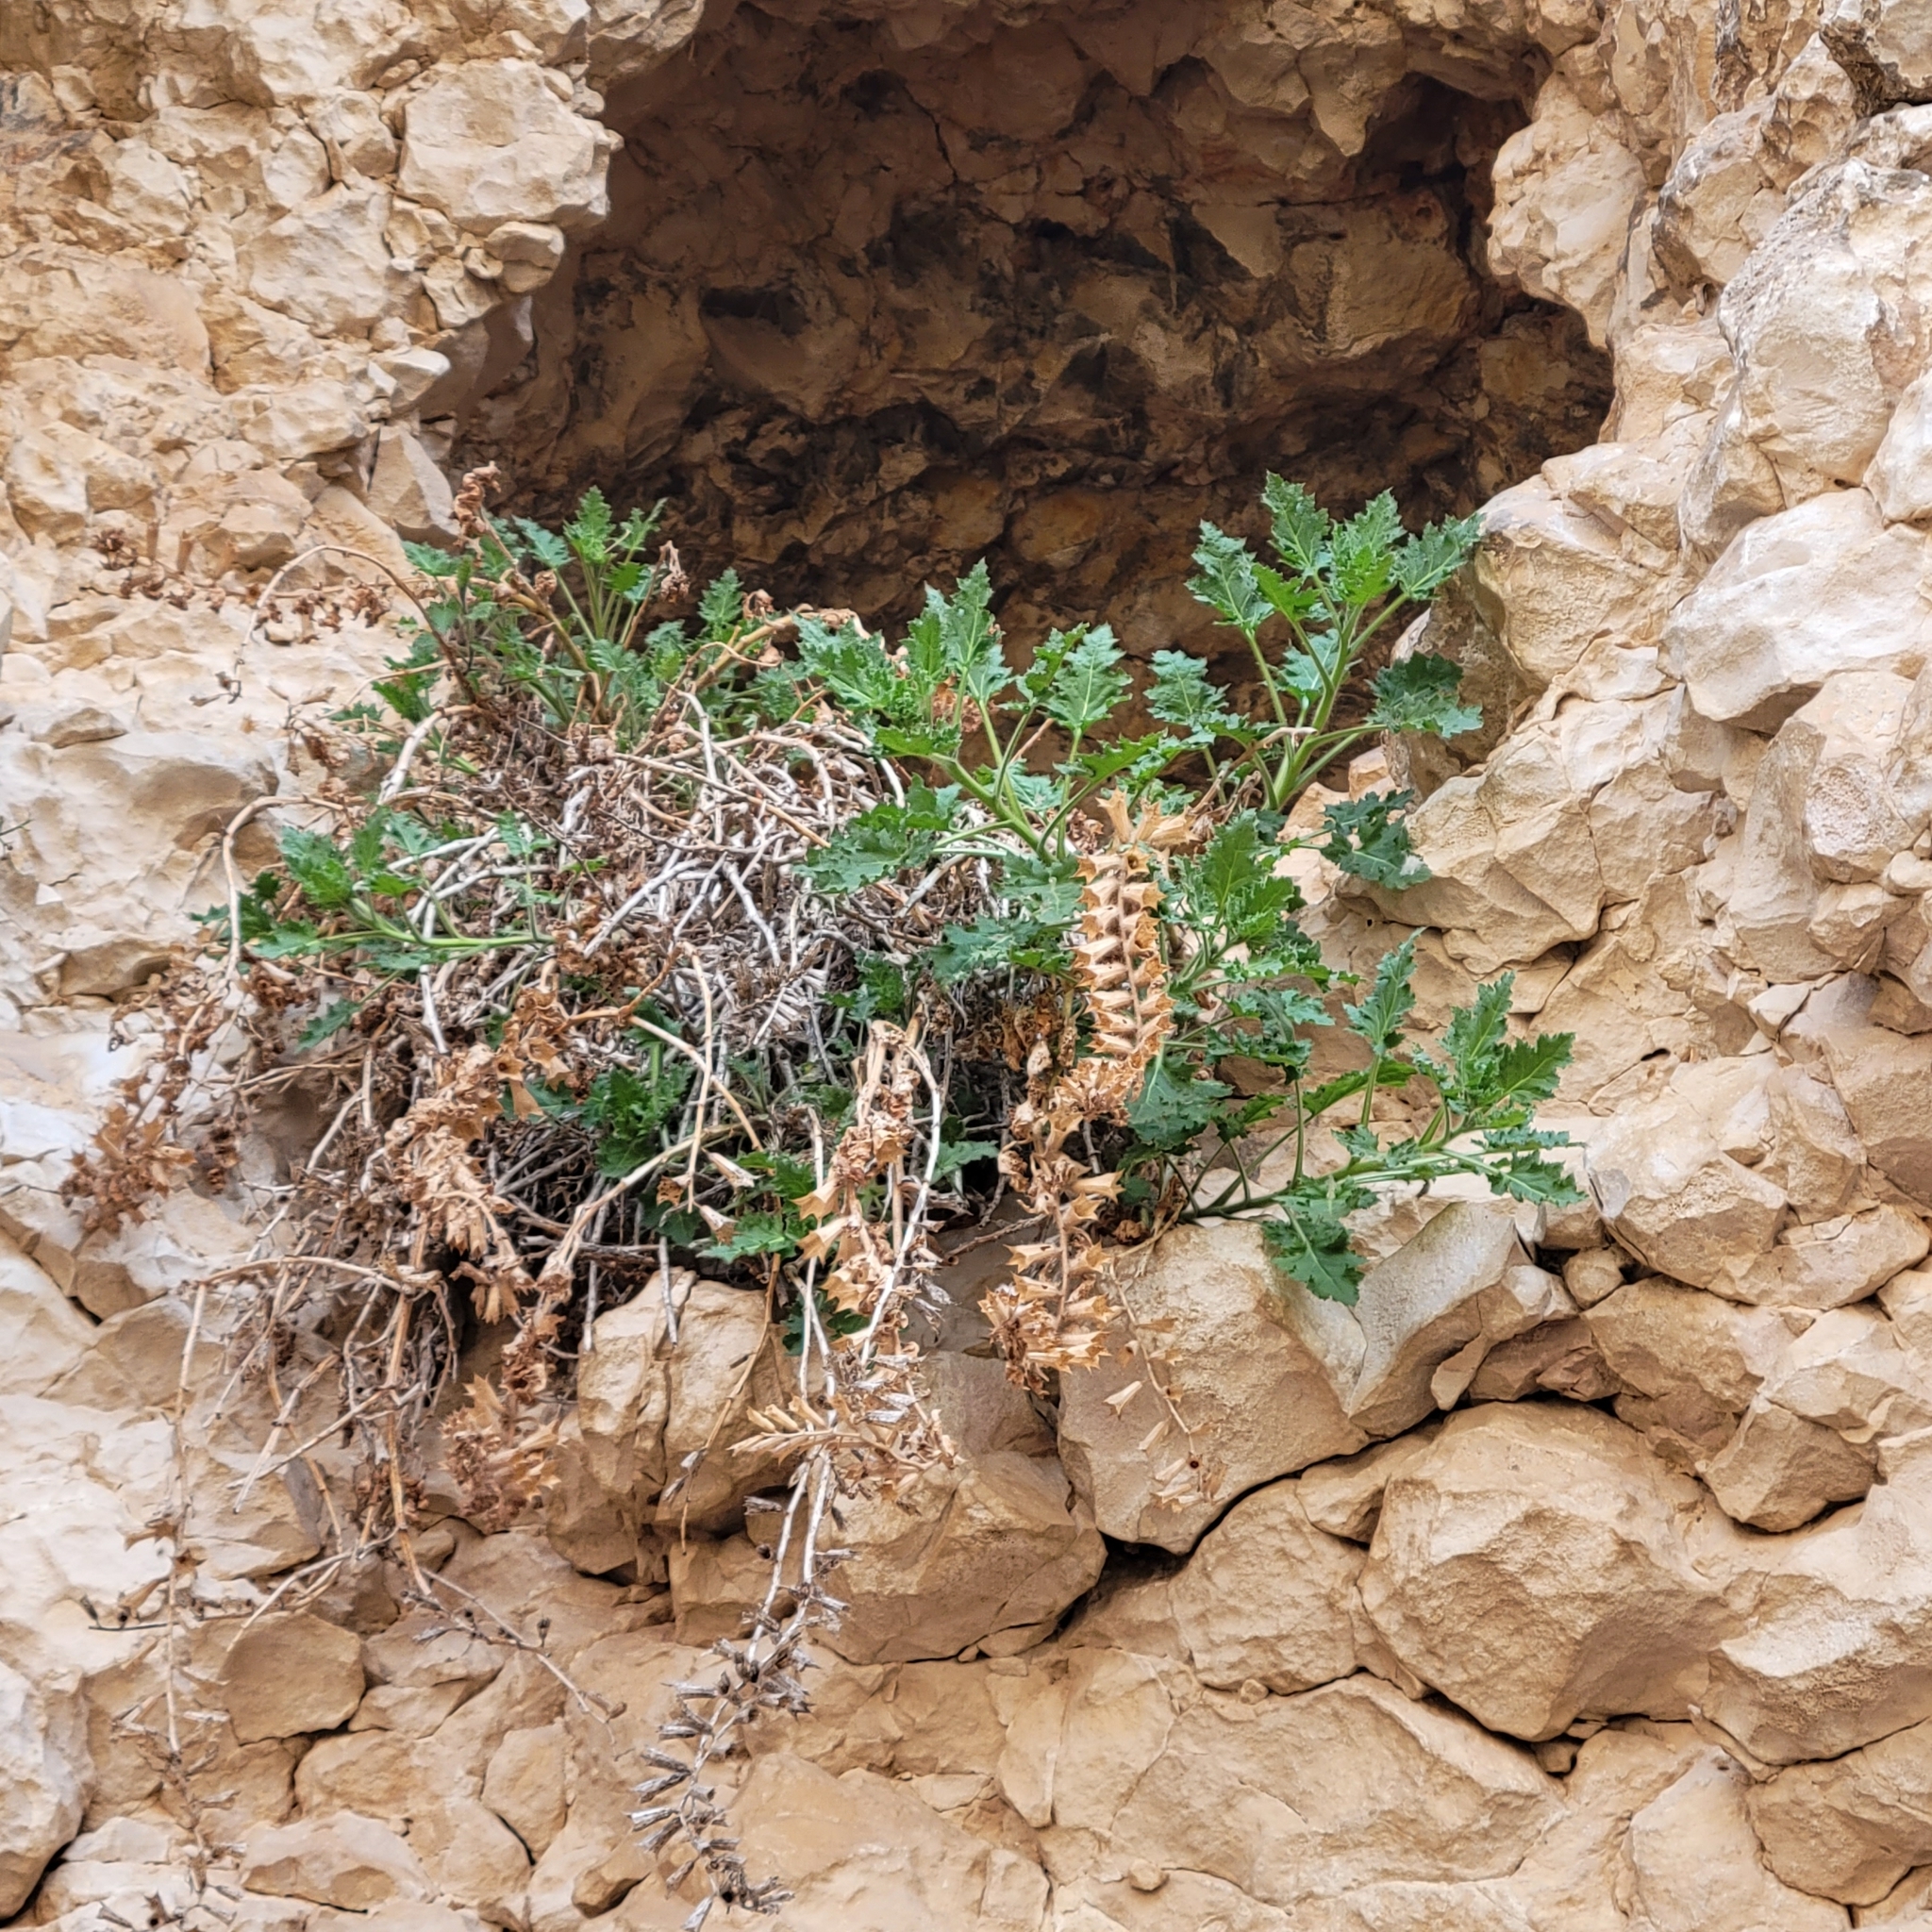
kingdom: Plantae
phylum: Tracheophyta
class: Magnoliopsida
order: Solanales
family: Solanaceae
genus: Hyoscyamus
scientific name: Hyoscyamus aureus
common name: Golden henbane
